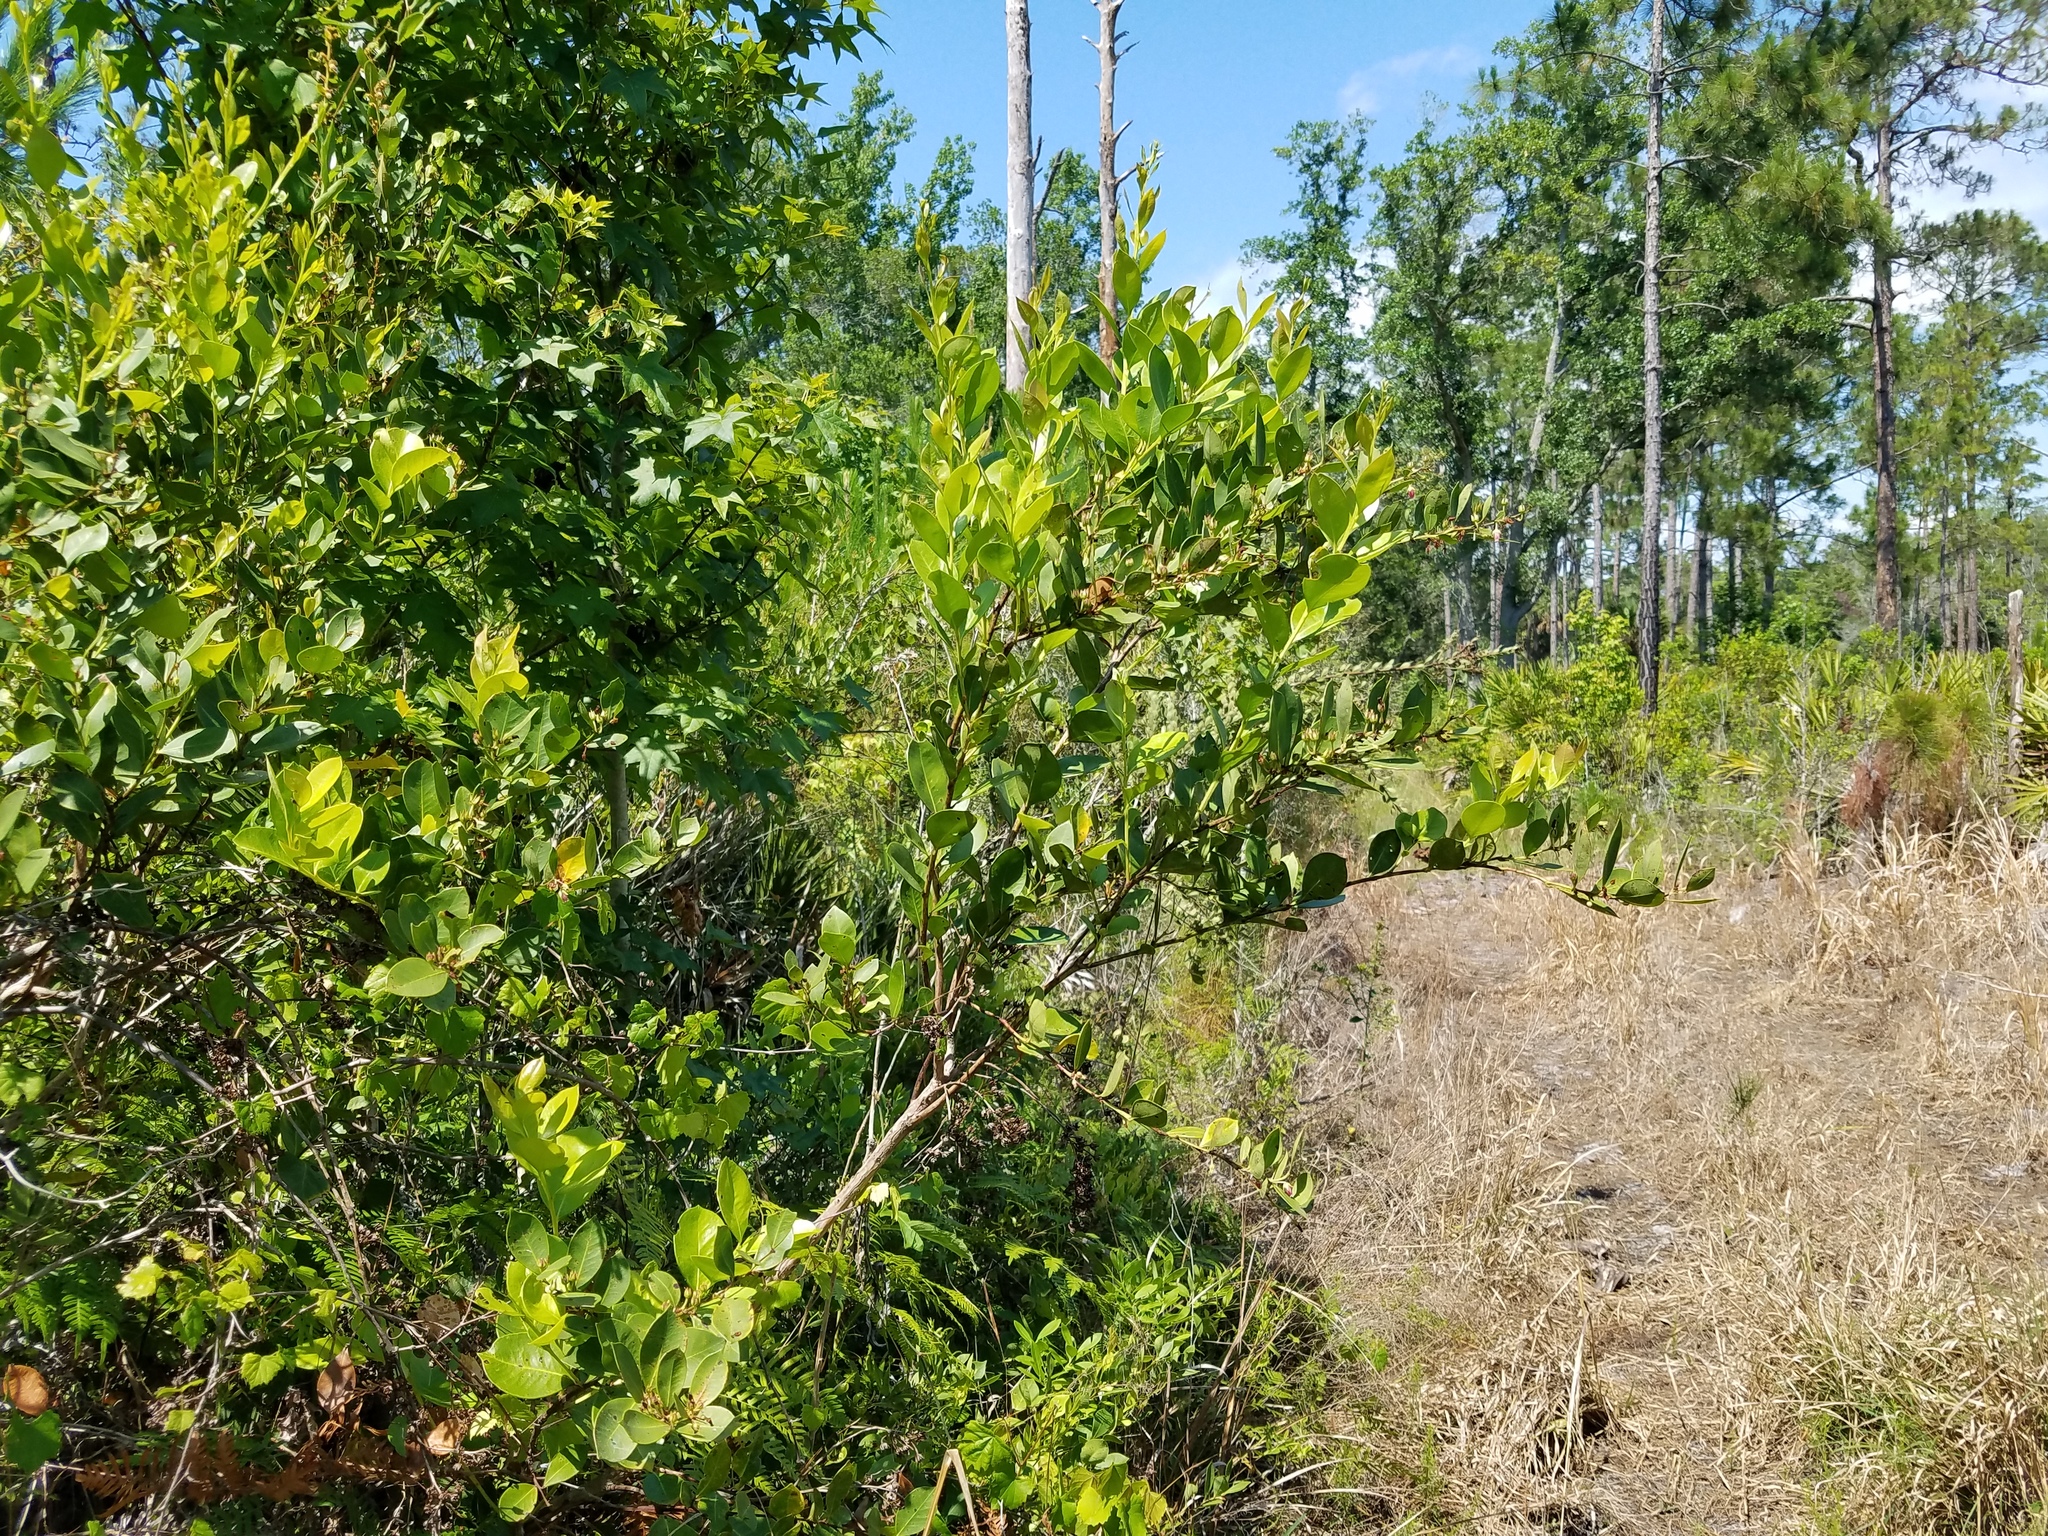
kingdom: Plantae
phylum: Tracheophyta
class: Magnoliopsida
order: Ericales
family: Ericaceae
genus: Lyonia
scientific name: Lyonia lucida
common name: Fetterbush
